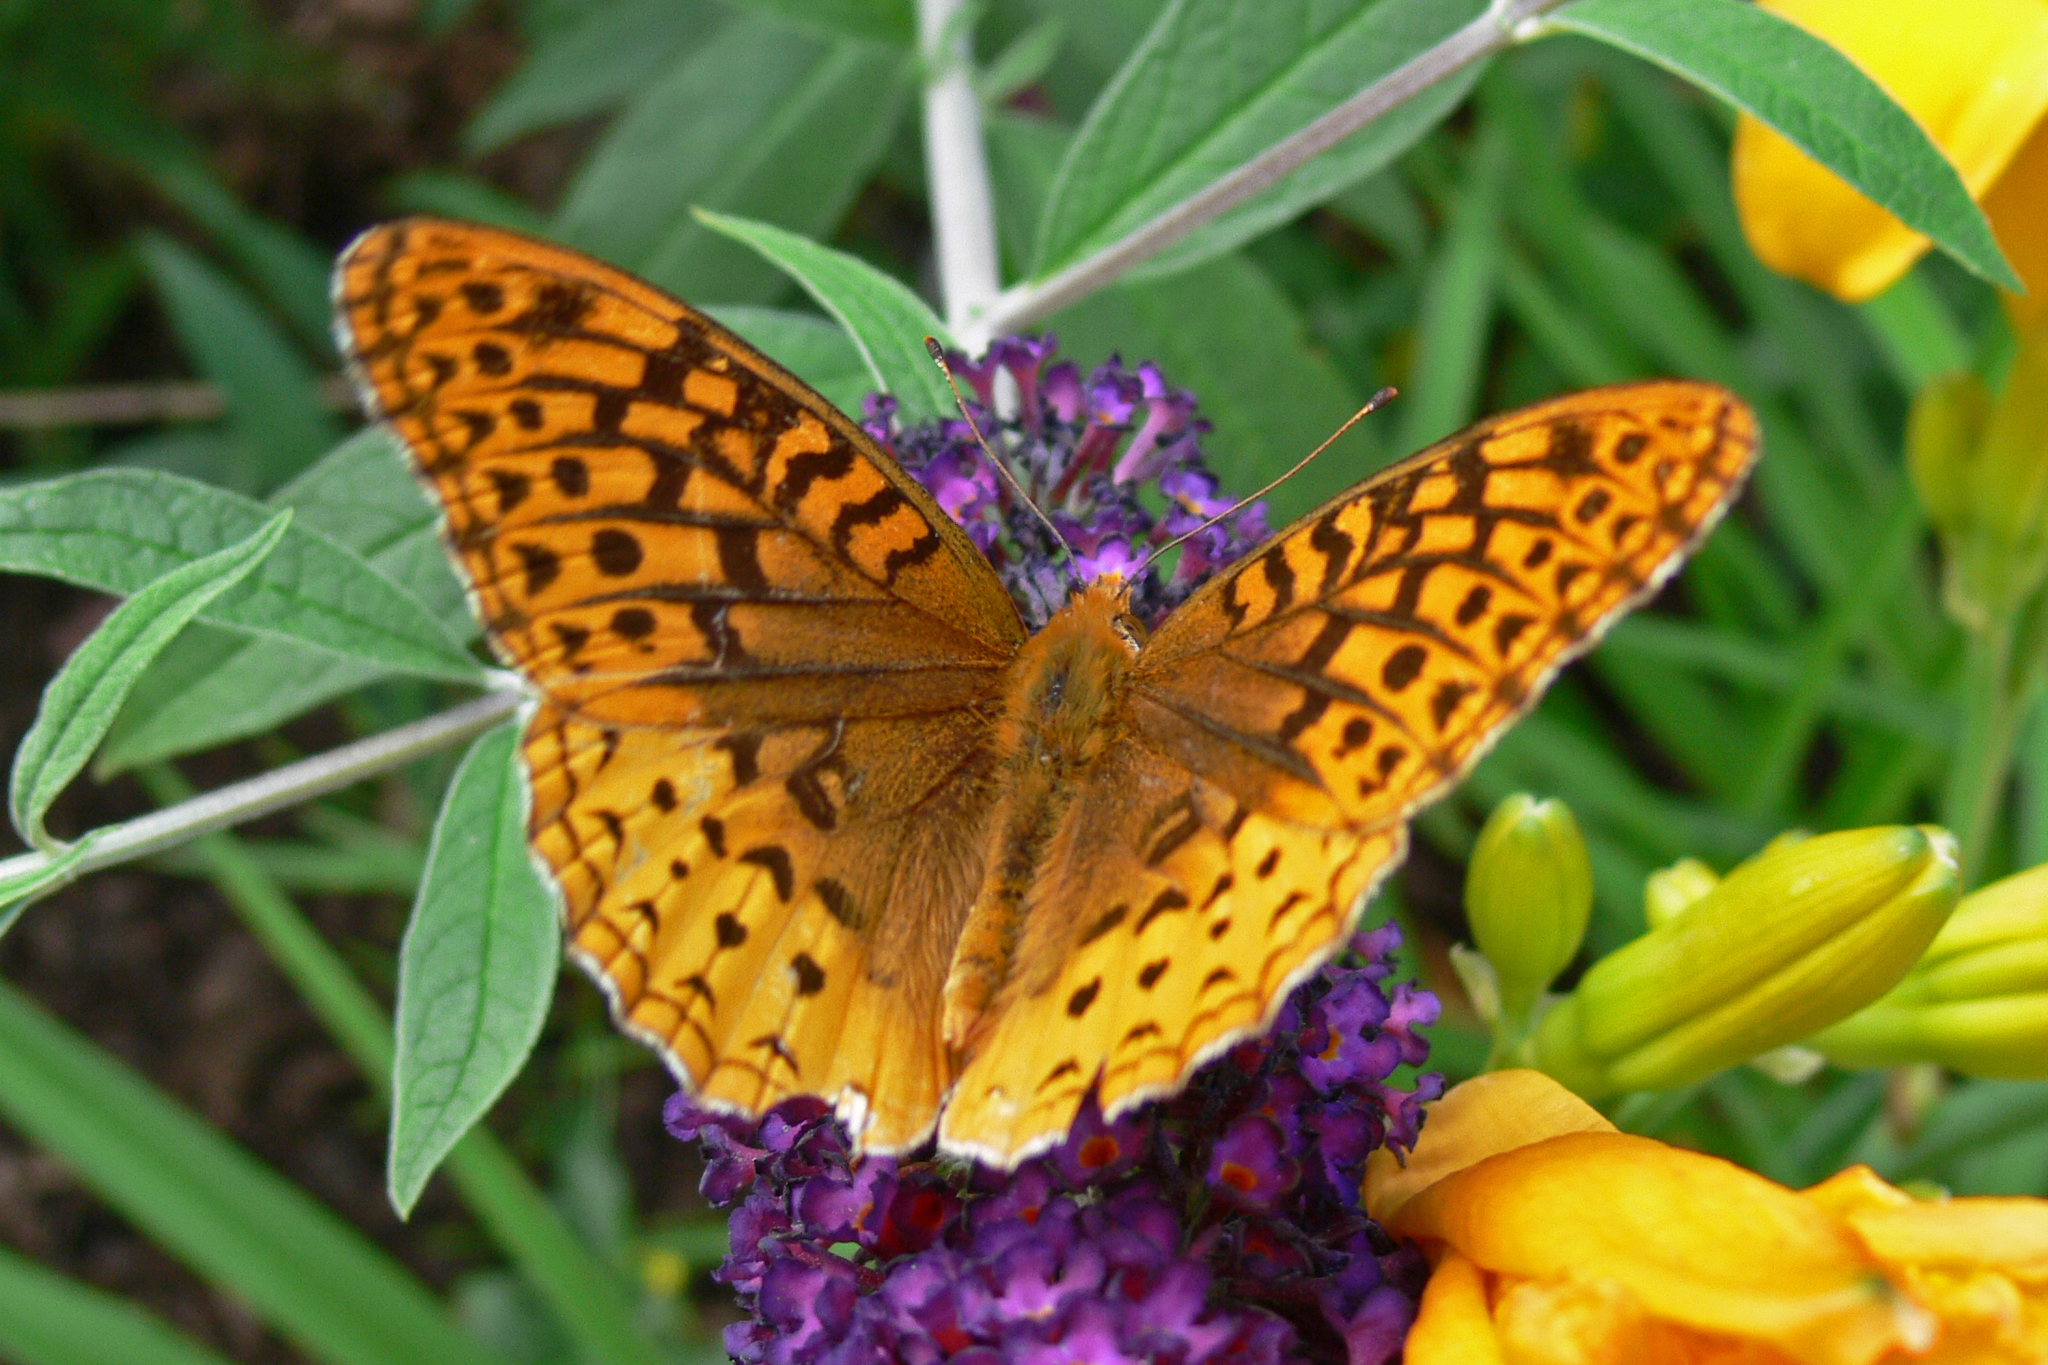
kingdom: Animalia
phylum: Arthropoda
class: Insecta
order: Lepidoptera
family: Nymphalidae
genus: Speyeria
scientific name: Speyeria cybele
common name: Great spangled fritillary
